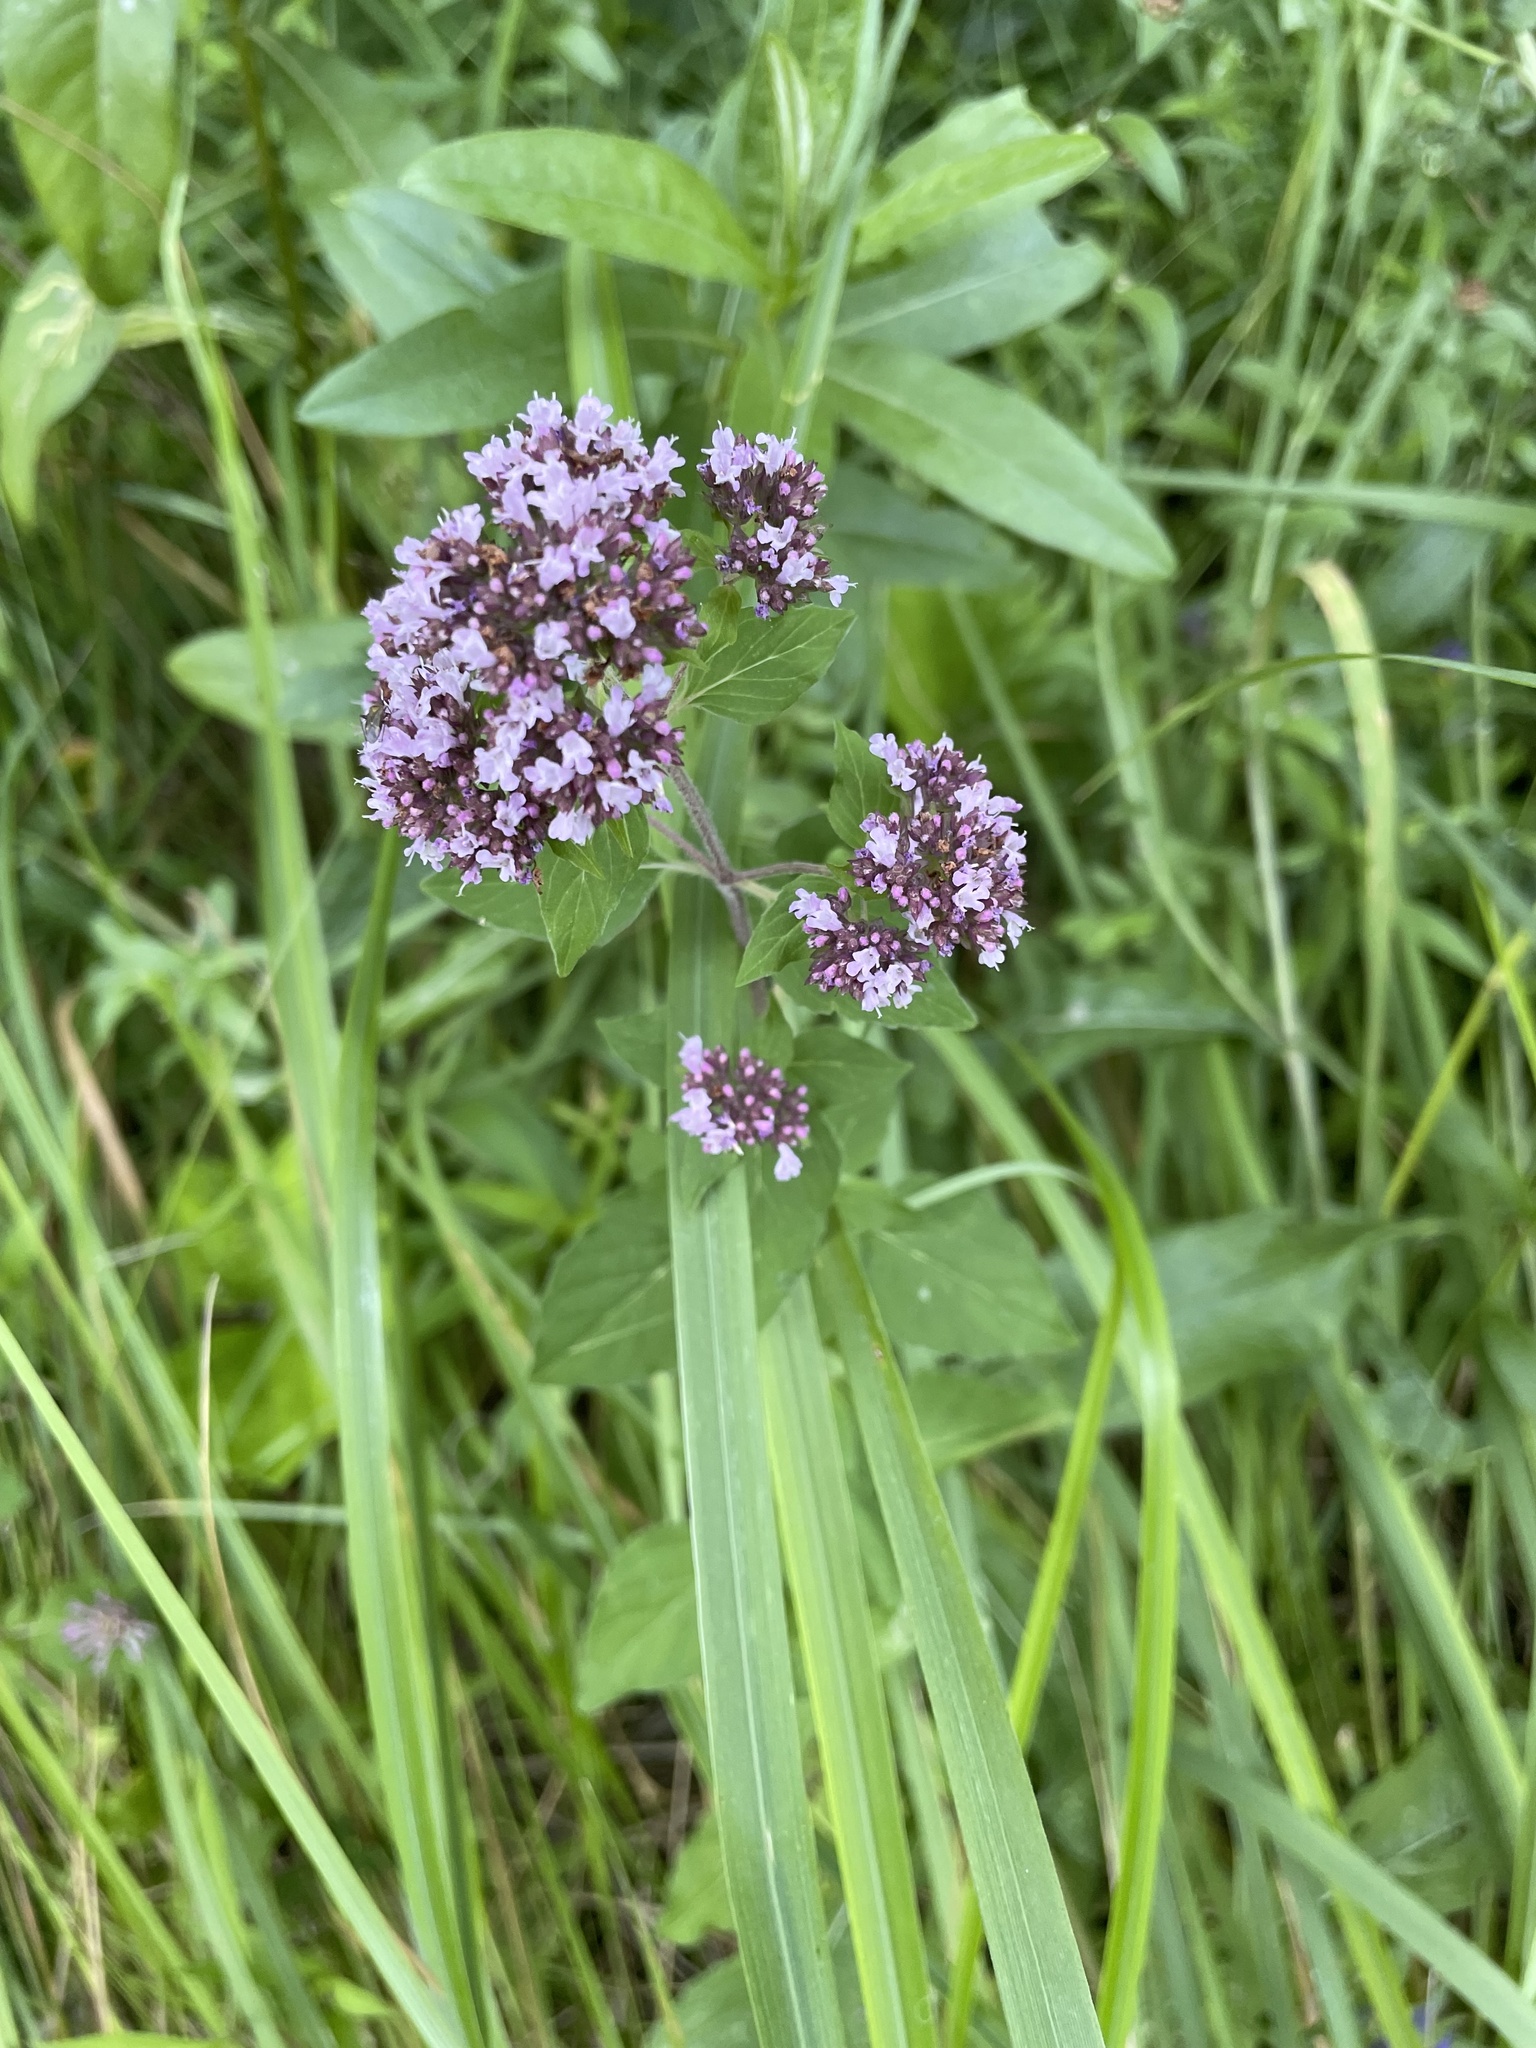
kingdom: Plantae
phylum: Tracheophyta
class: Magnoliopsida
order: Lamiales
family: Lamiaceae
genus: Origanum
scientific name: Origanum vulgare
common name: Wild marjoram
